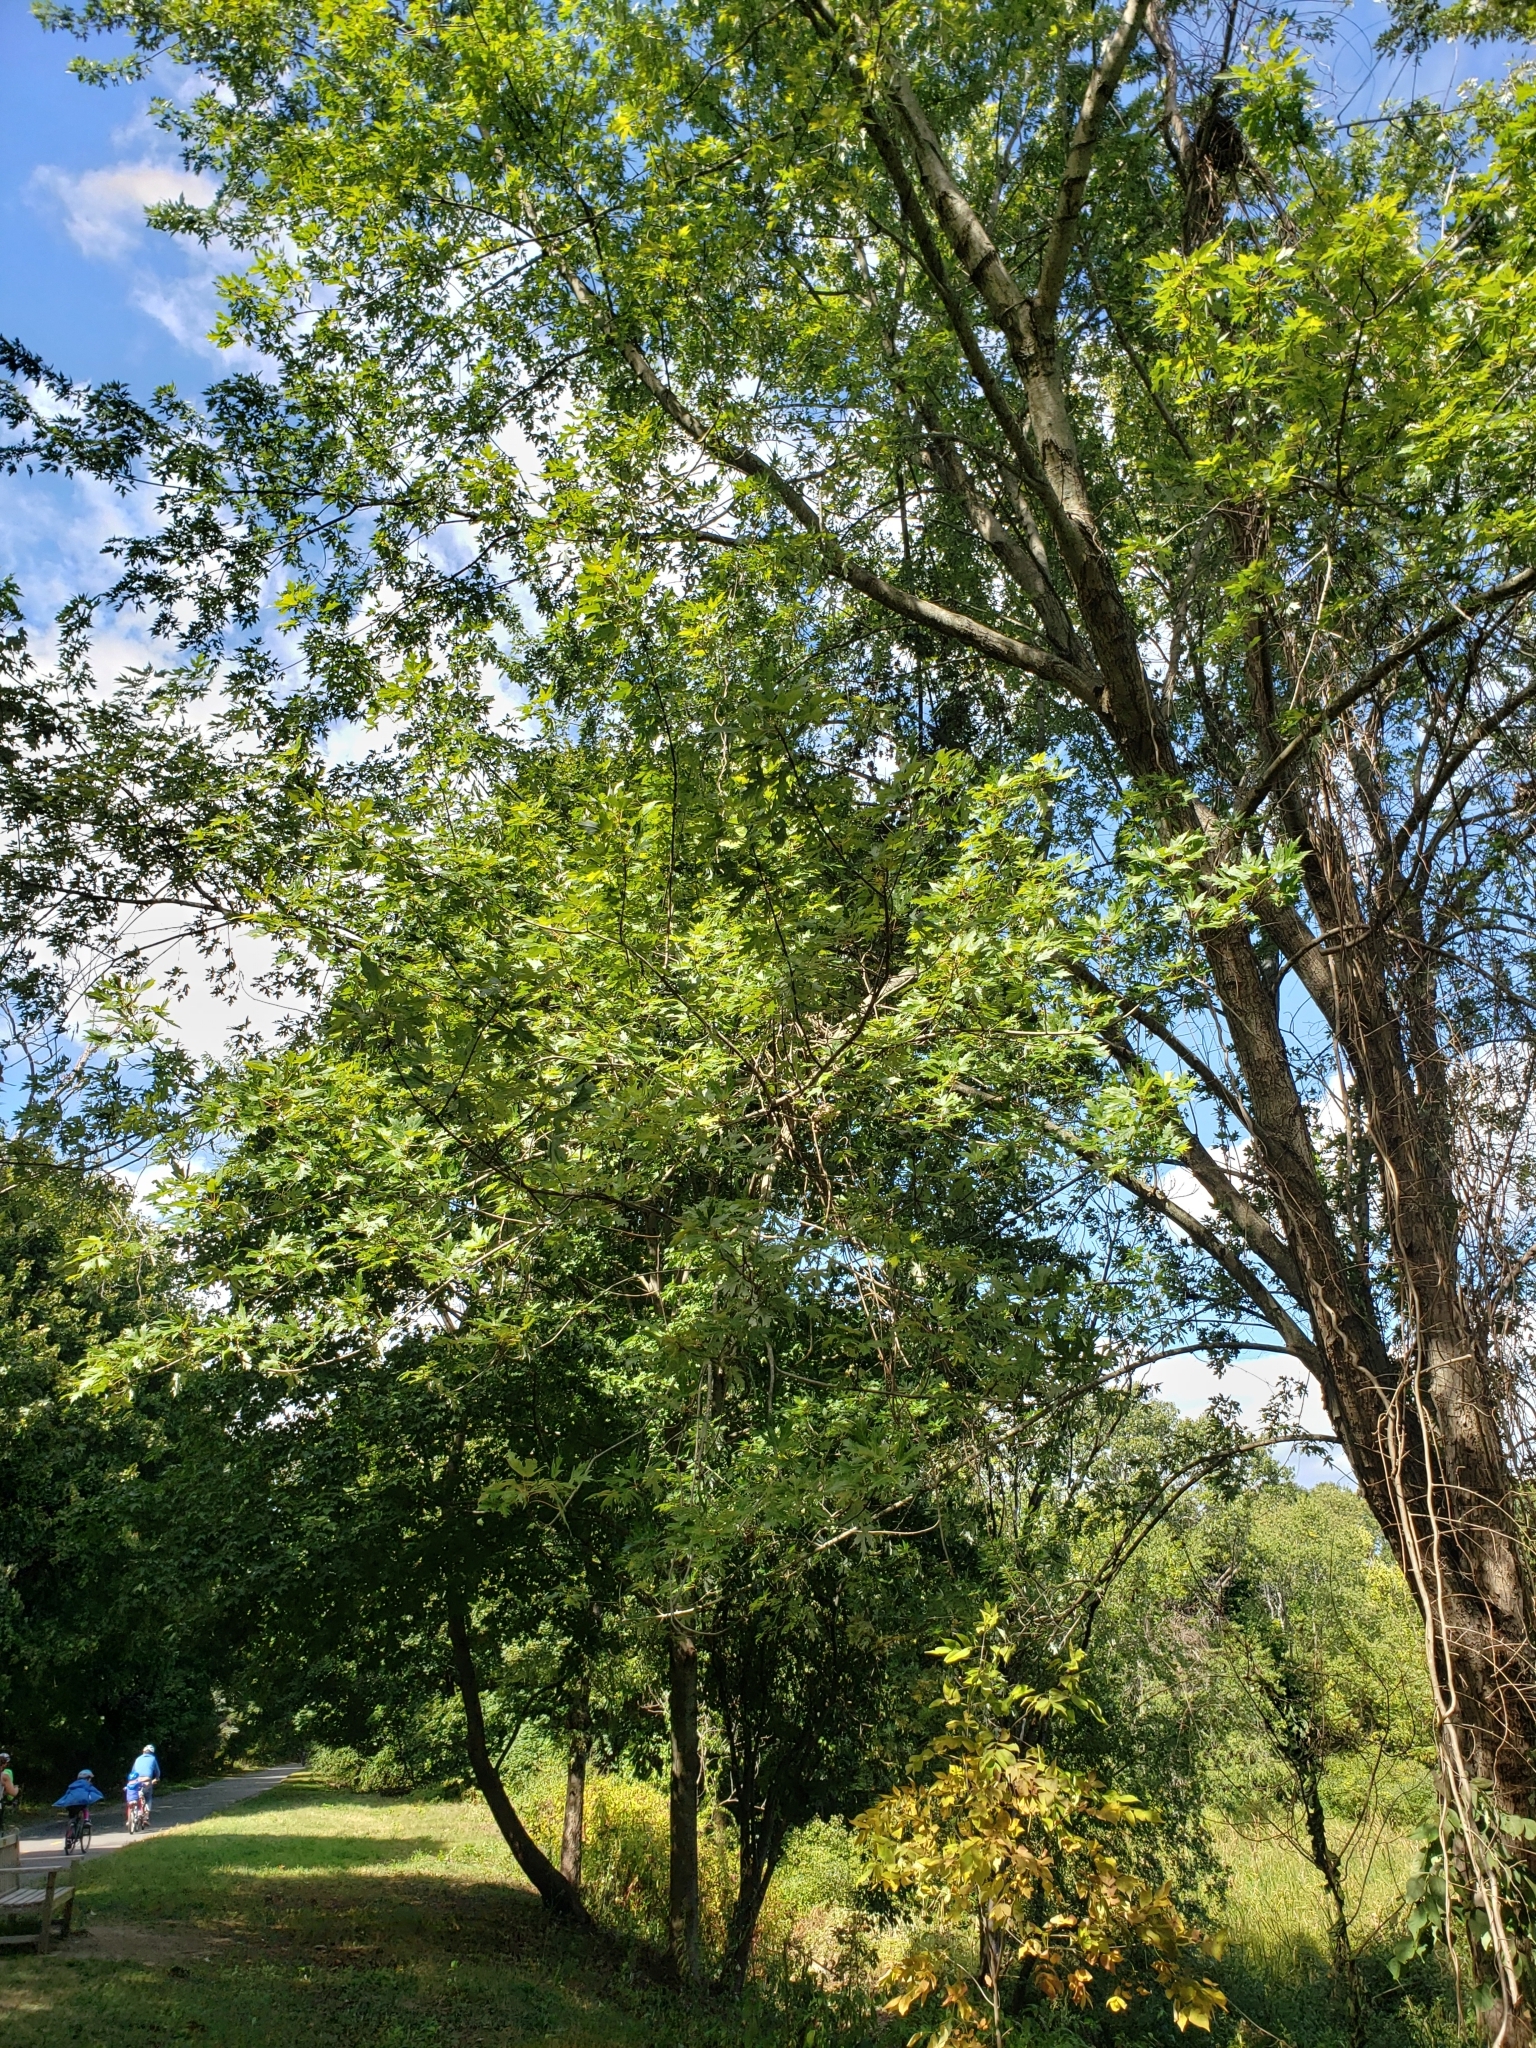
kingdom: Plantae
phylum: Tracheophyta
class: Magnoliopsida
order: Sapindales
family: Sapindaceae
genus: Acer
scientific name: Acer saccharinum
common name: Silver maple
